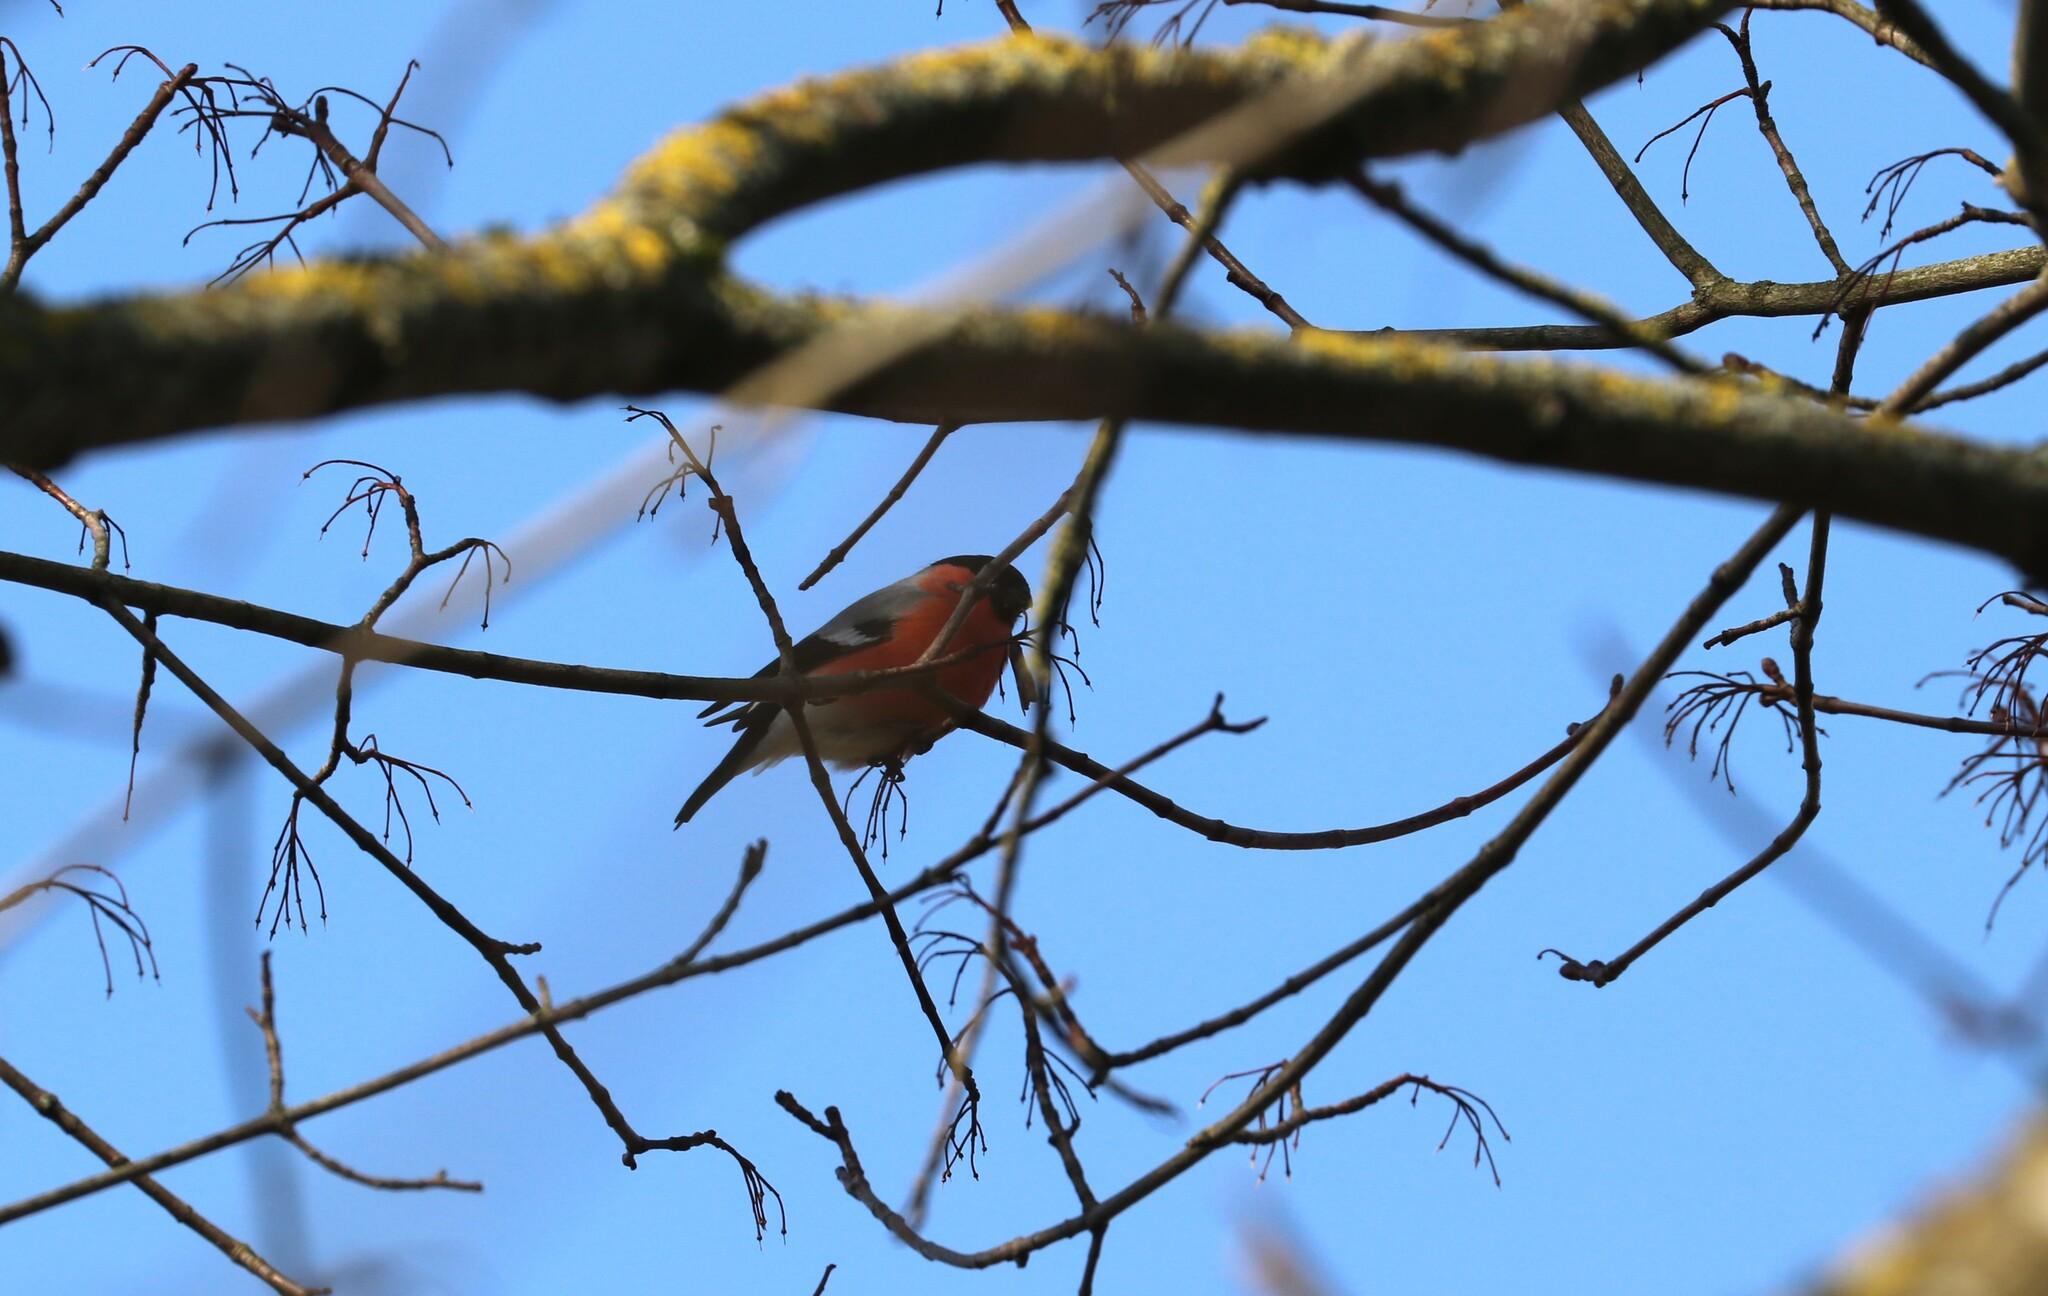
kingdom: Animalia
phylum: Chordata
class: Aves
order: Passeriformes
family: Fringillidae
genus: Pyrrhula
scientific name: Pyrrhula pyrrhula
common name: Eurasian bullfinch
